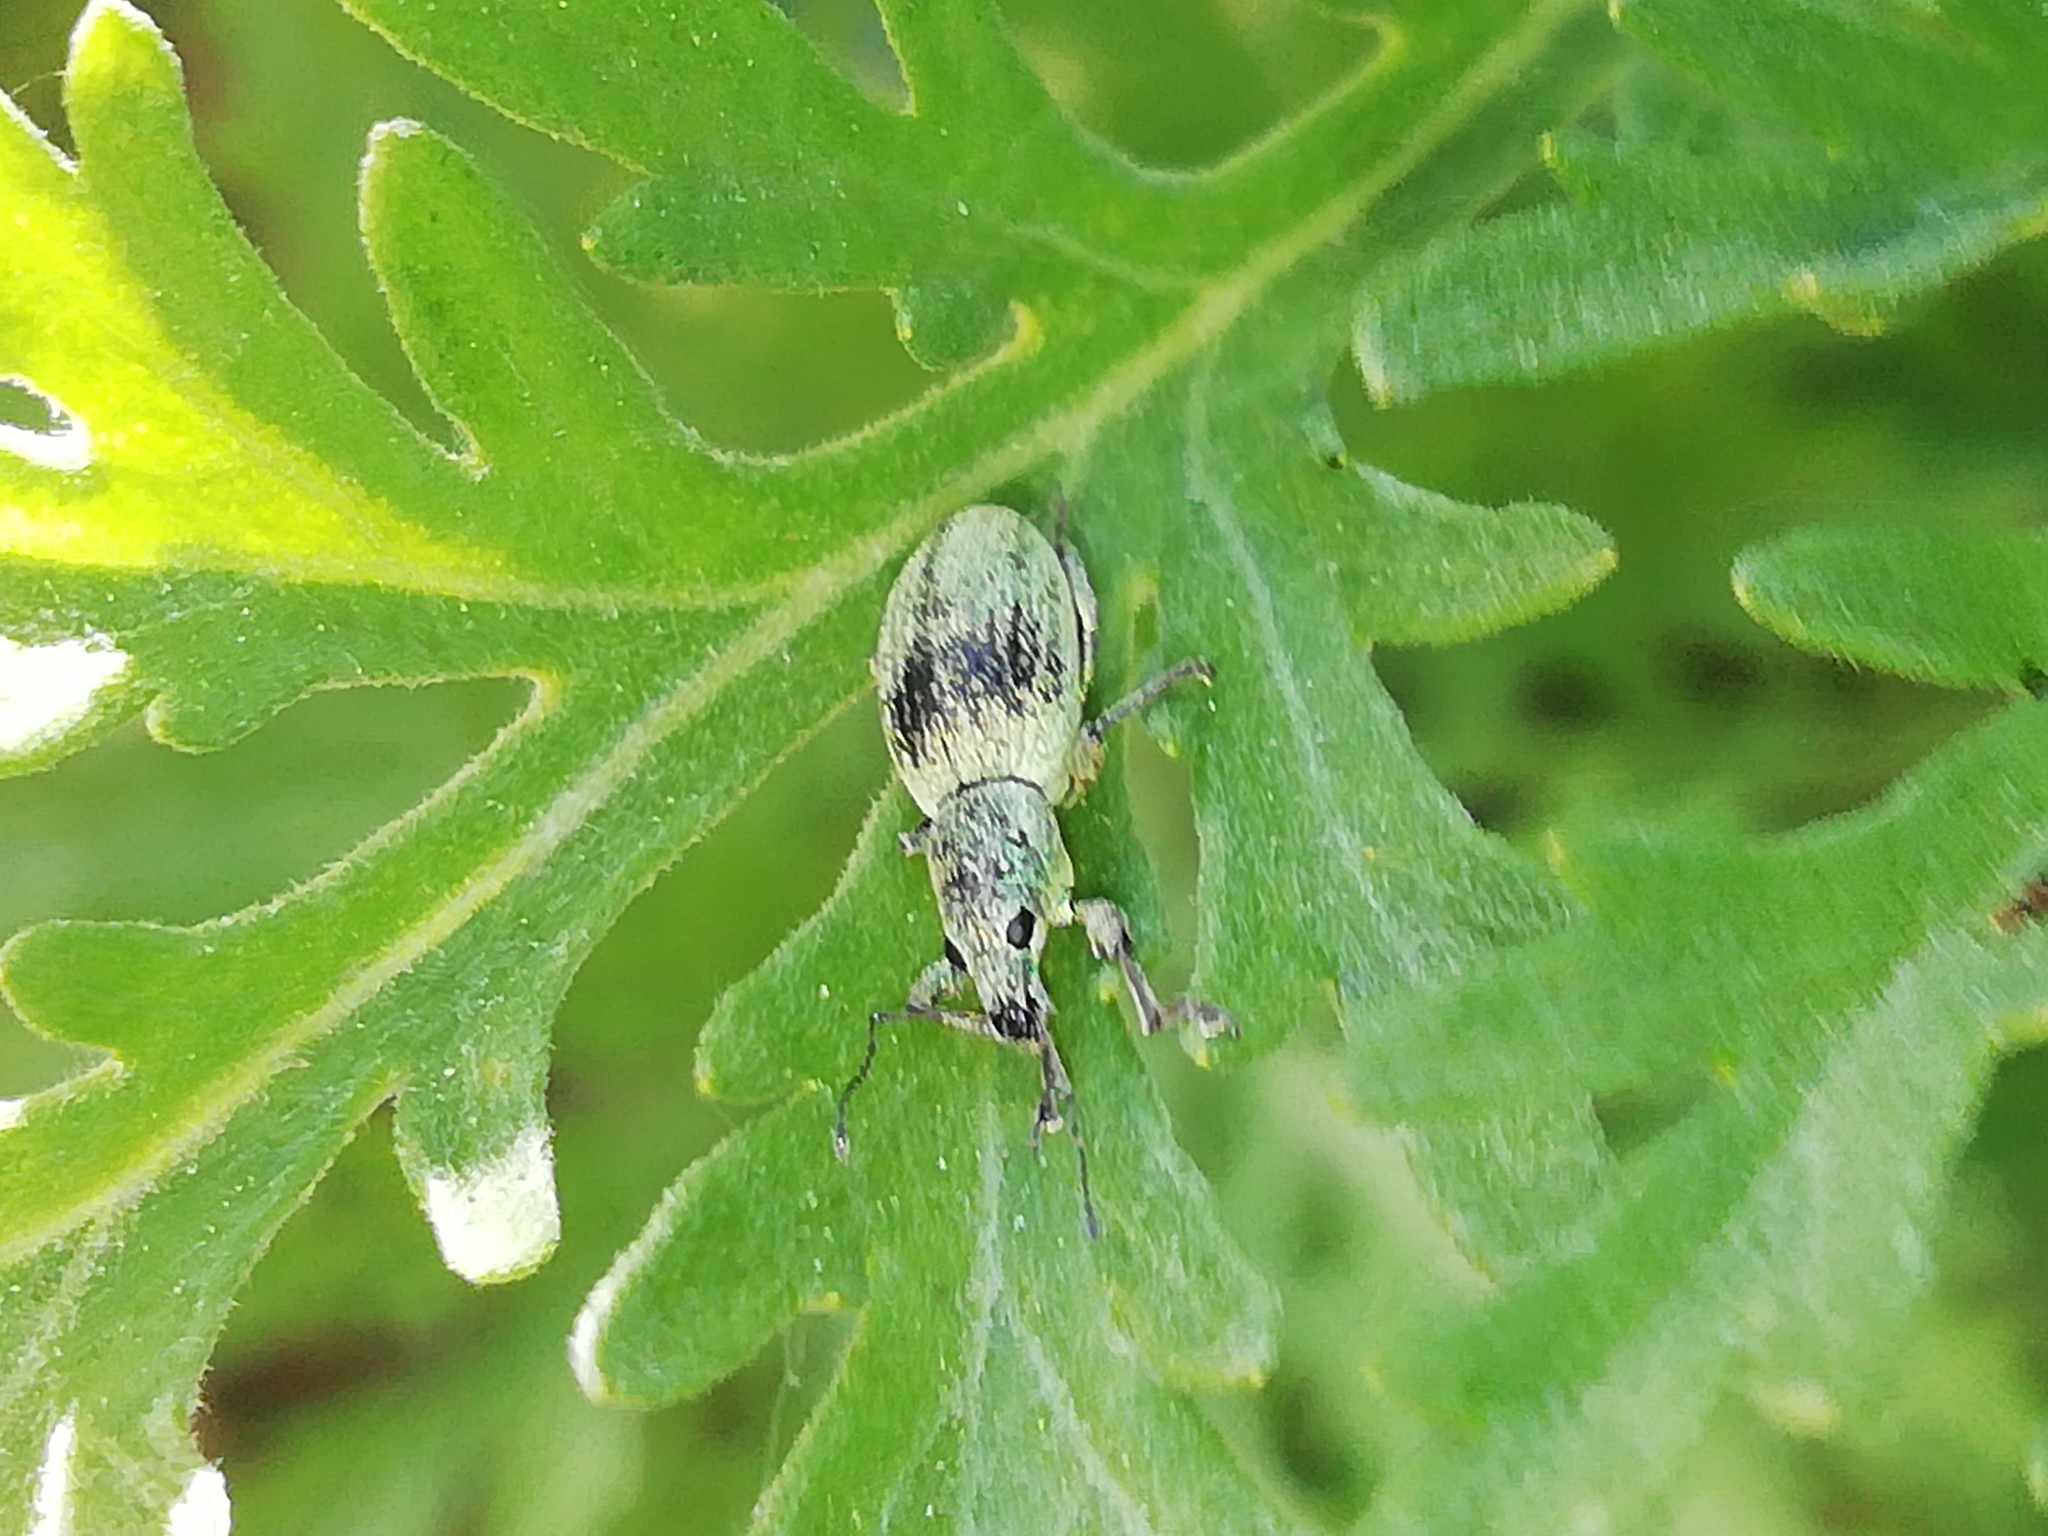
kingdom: Animalia
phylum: Arthropoda
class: Insecta
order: Coleoptera
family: Curculionidae
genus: Eusomus
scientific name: Eusomus ovulum
